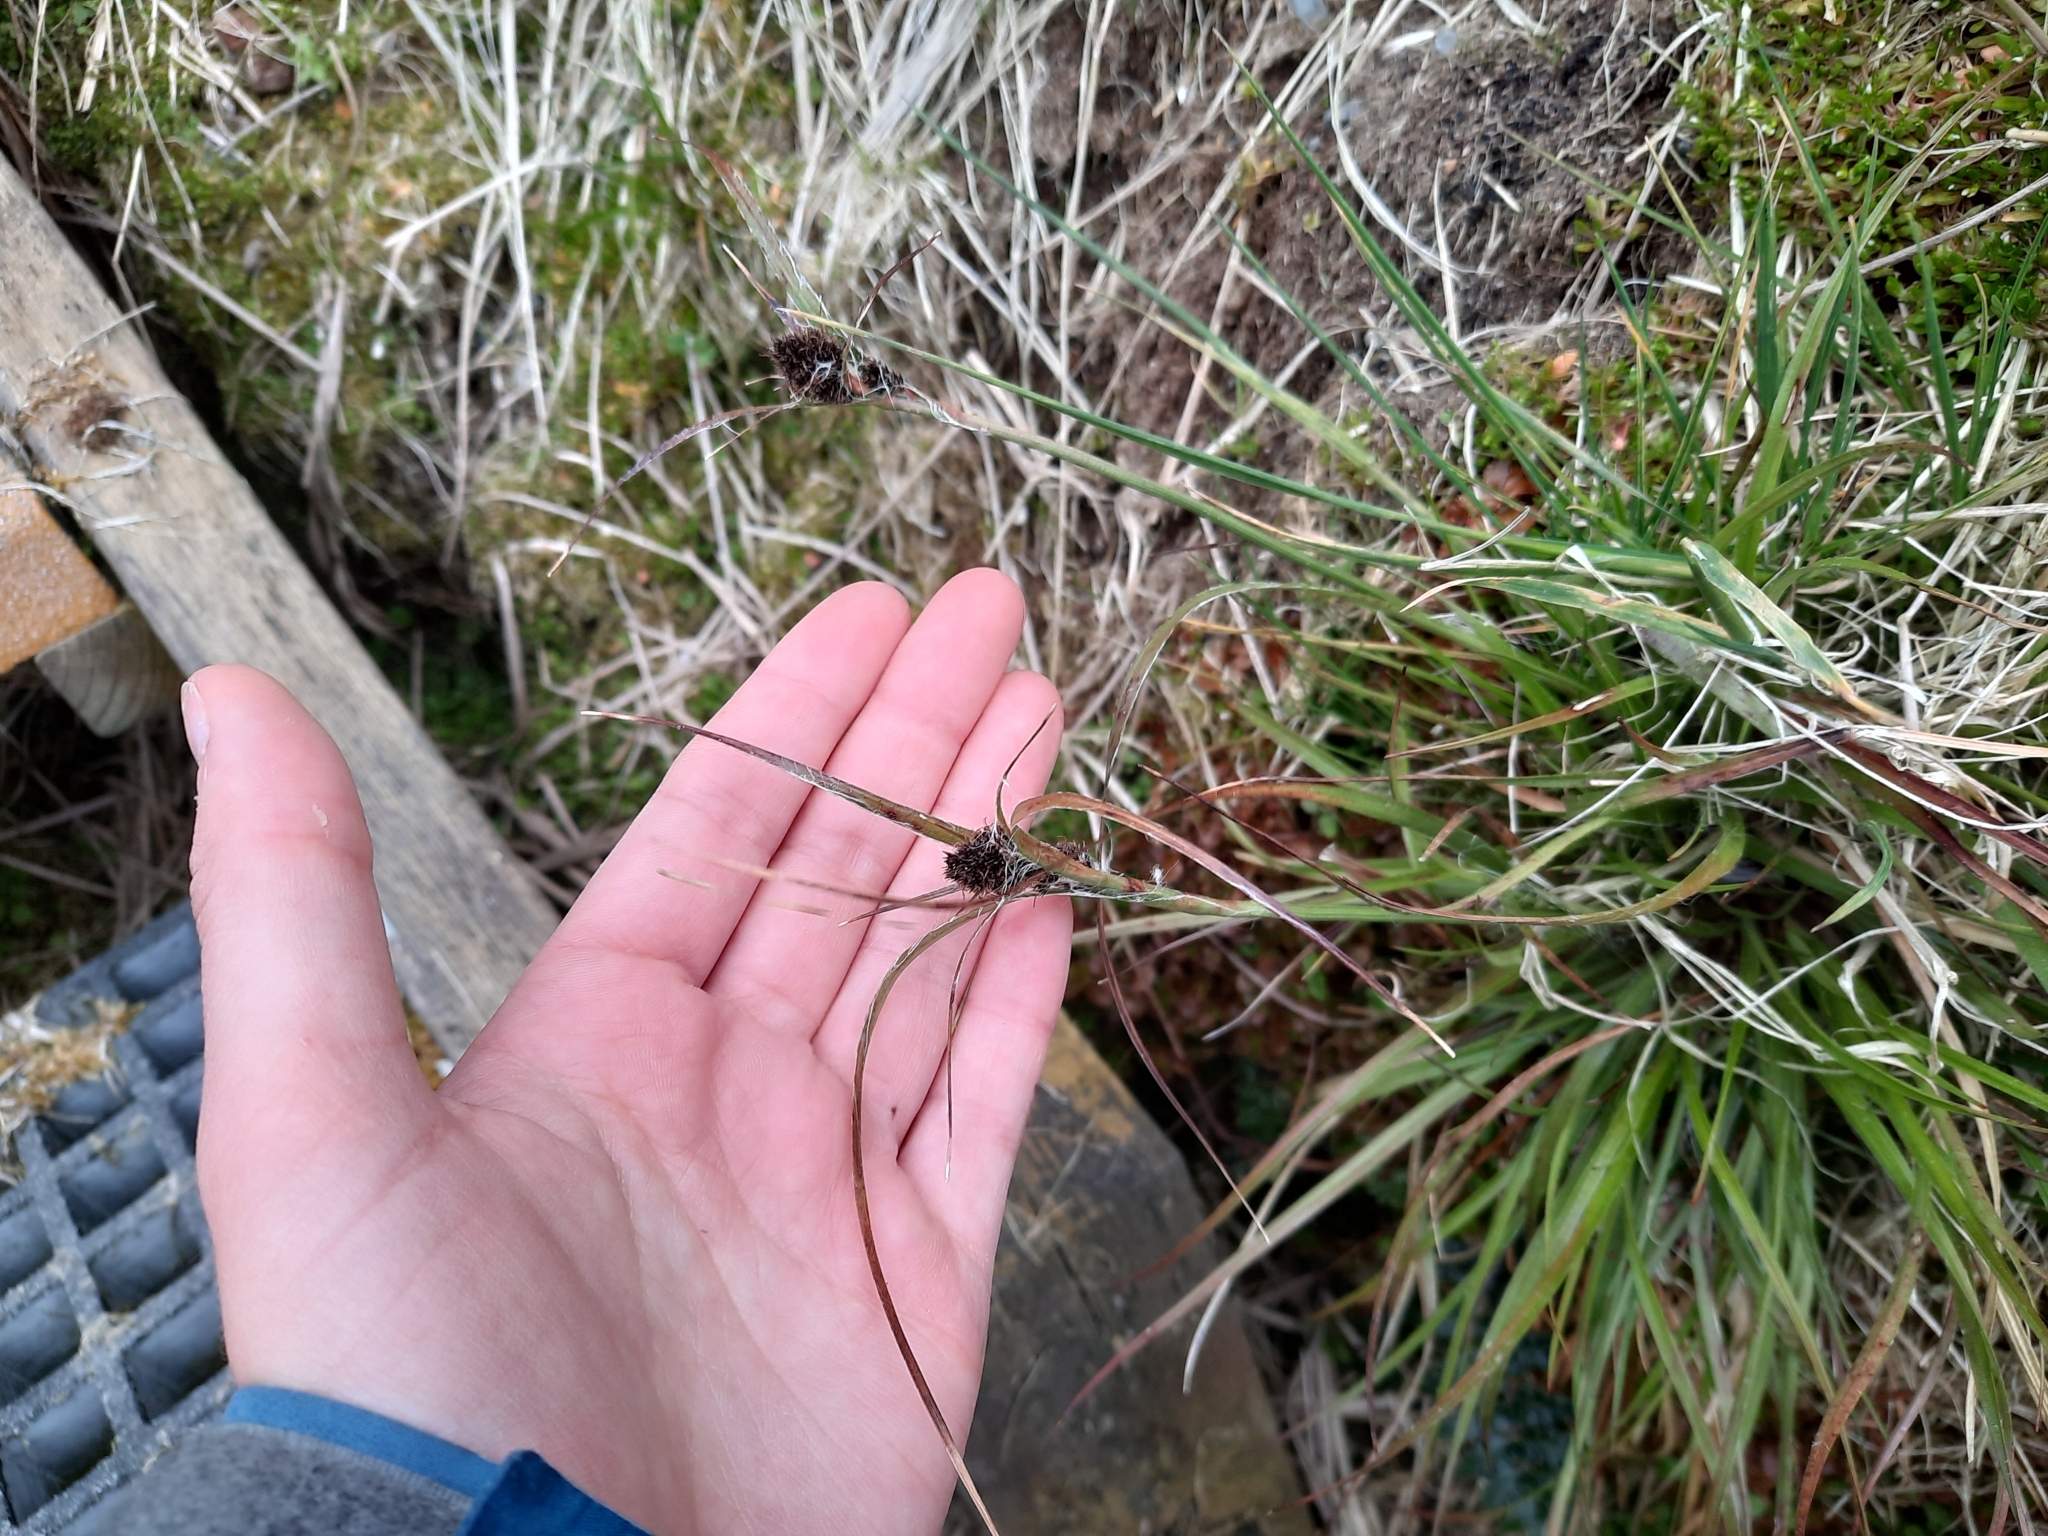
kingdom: Plantae
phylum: Tracheophyta
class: Liliopsida
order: Poales
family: Juncaceae
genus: Luzula
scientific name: Luzula crinita
